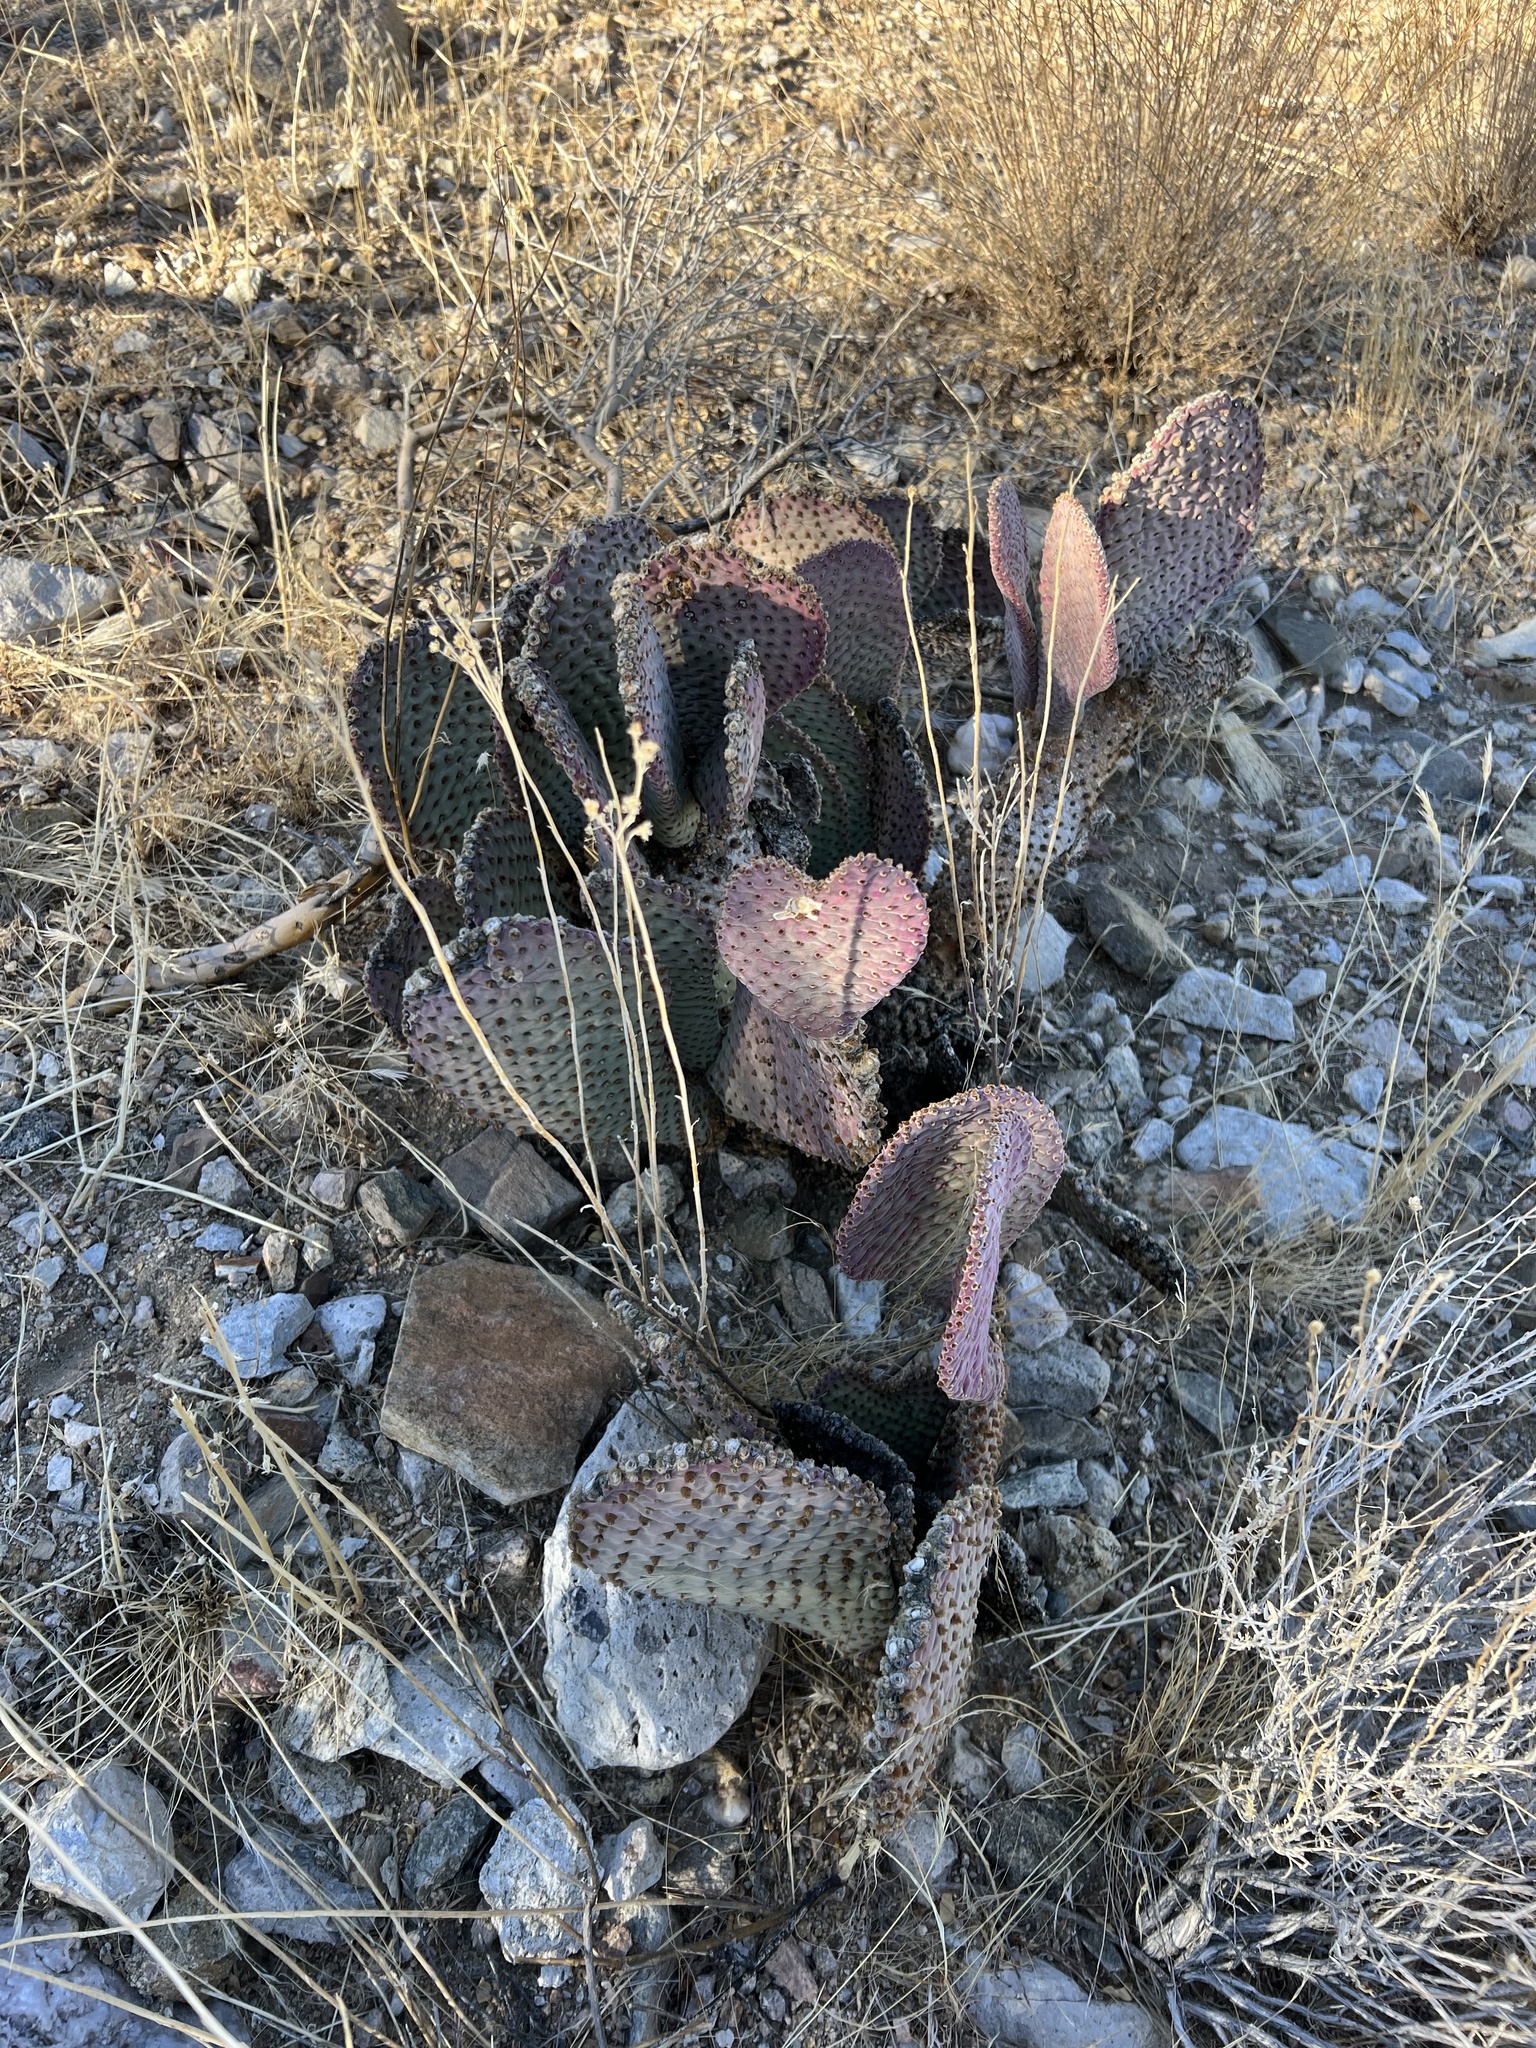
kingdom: Plantae
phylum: Tracheophyta
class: Magnoliopsida
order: Caryophyllales
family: Cactaceae
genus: Opuntia
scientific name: Opuntia basilaris
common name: Beavertail prickly-pear
